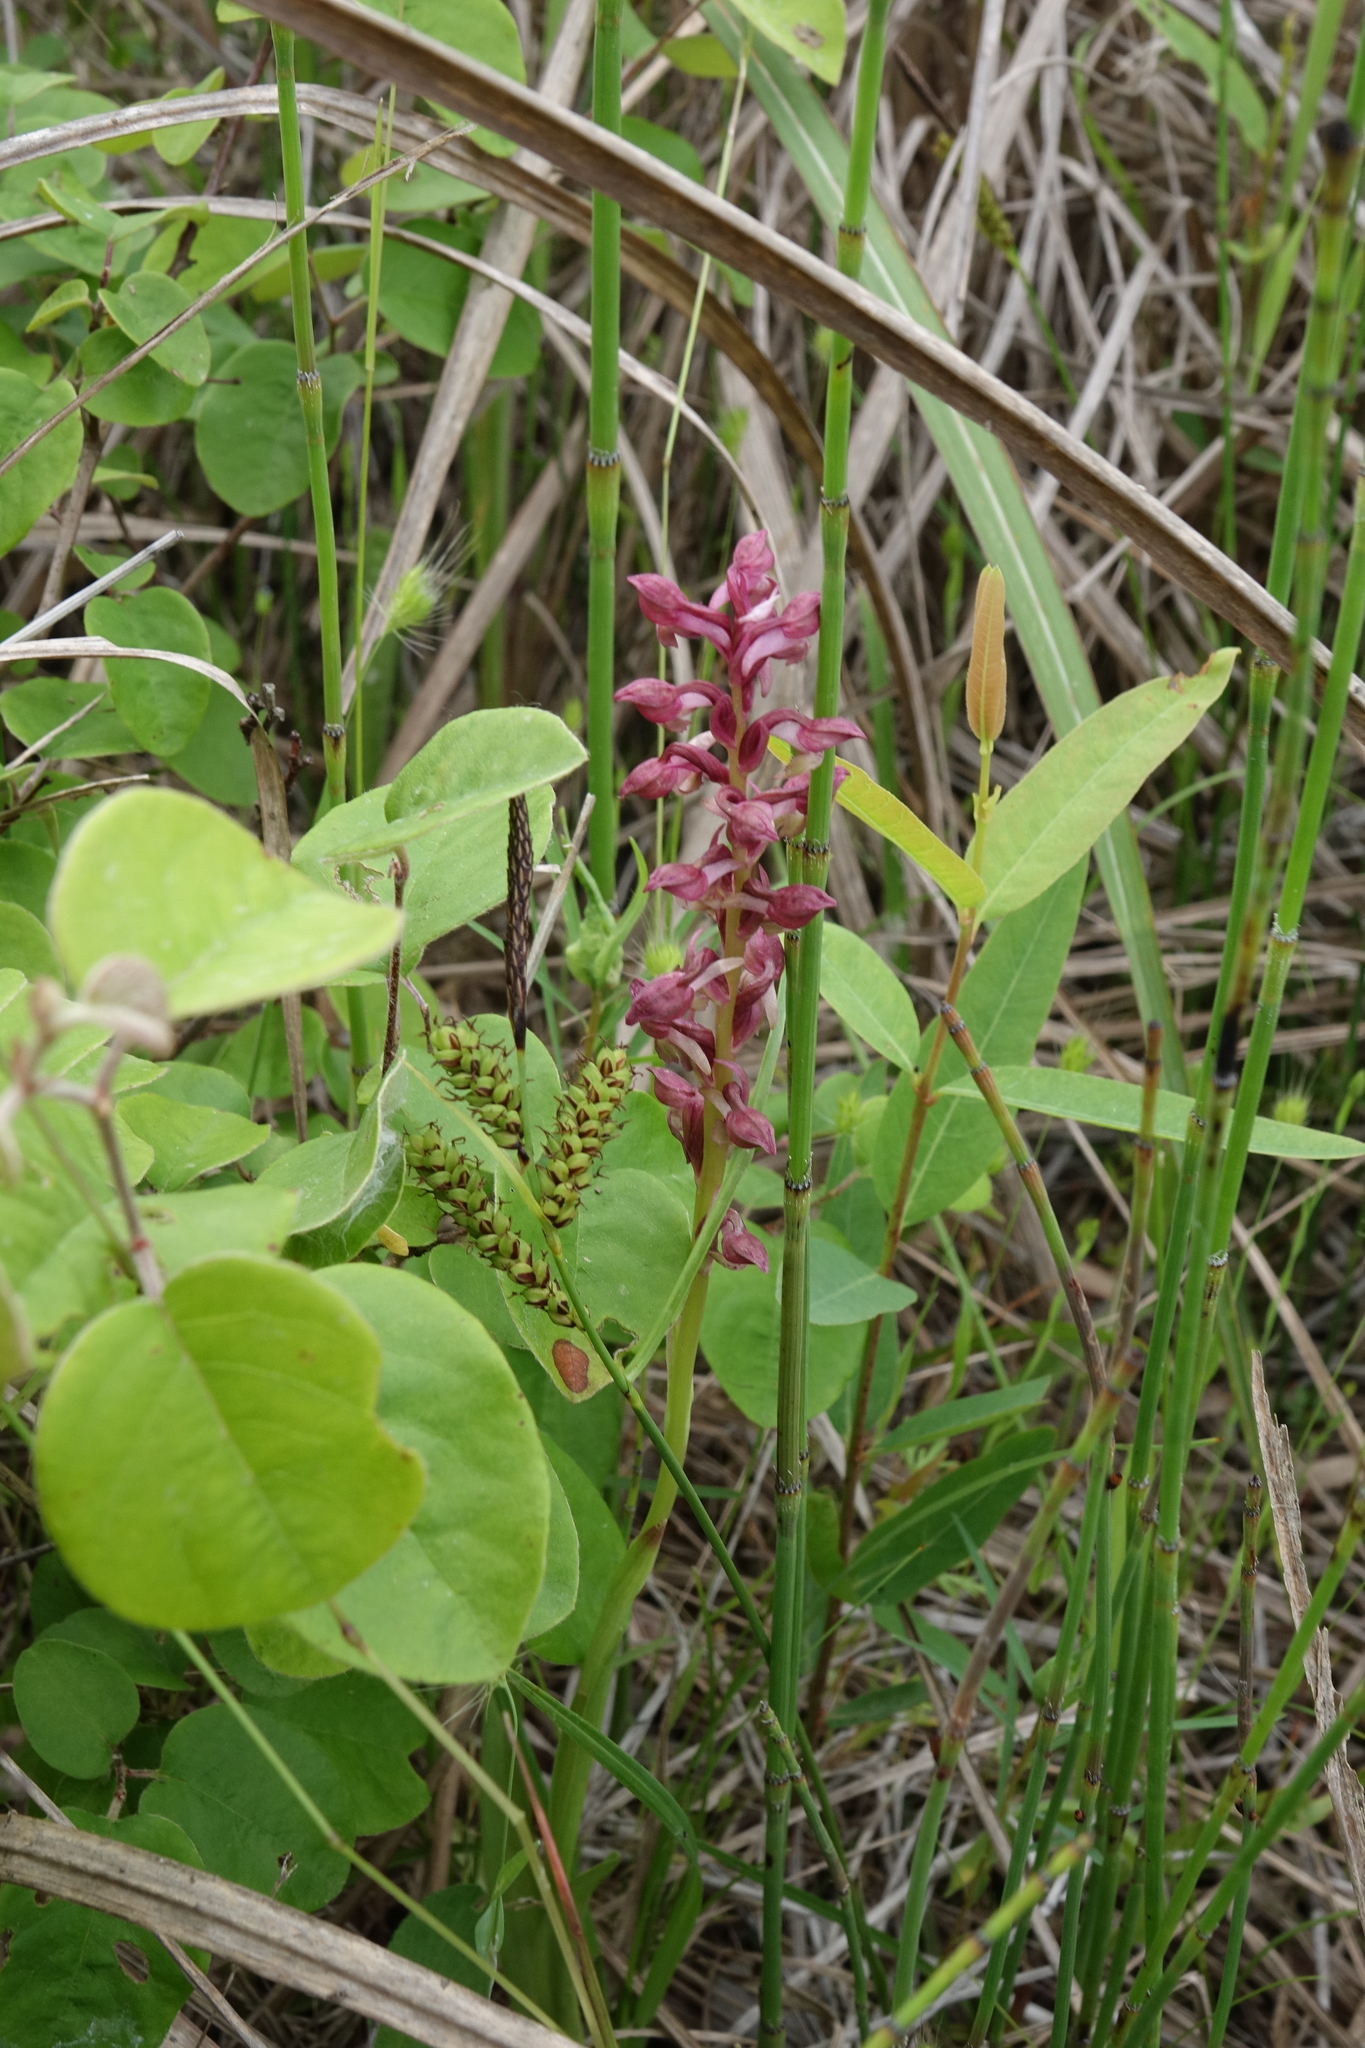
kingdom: Plantae
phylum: Tracheophyta
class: Liliopsida
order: Asparagales
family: Orchidaceae
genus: Anacamptis
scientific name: Anacamptis coriophora
